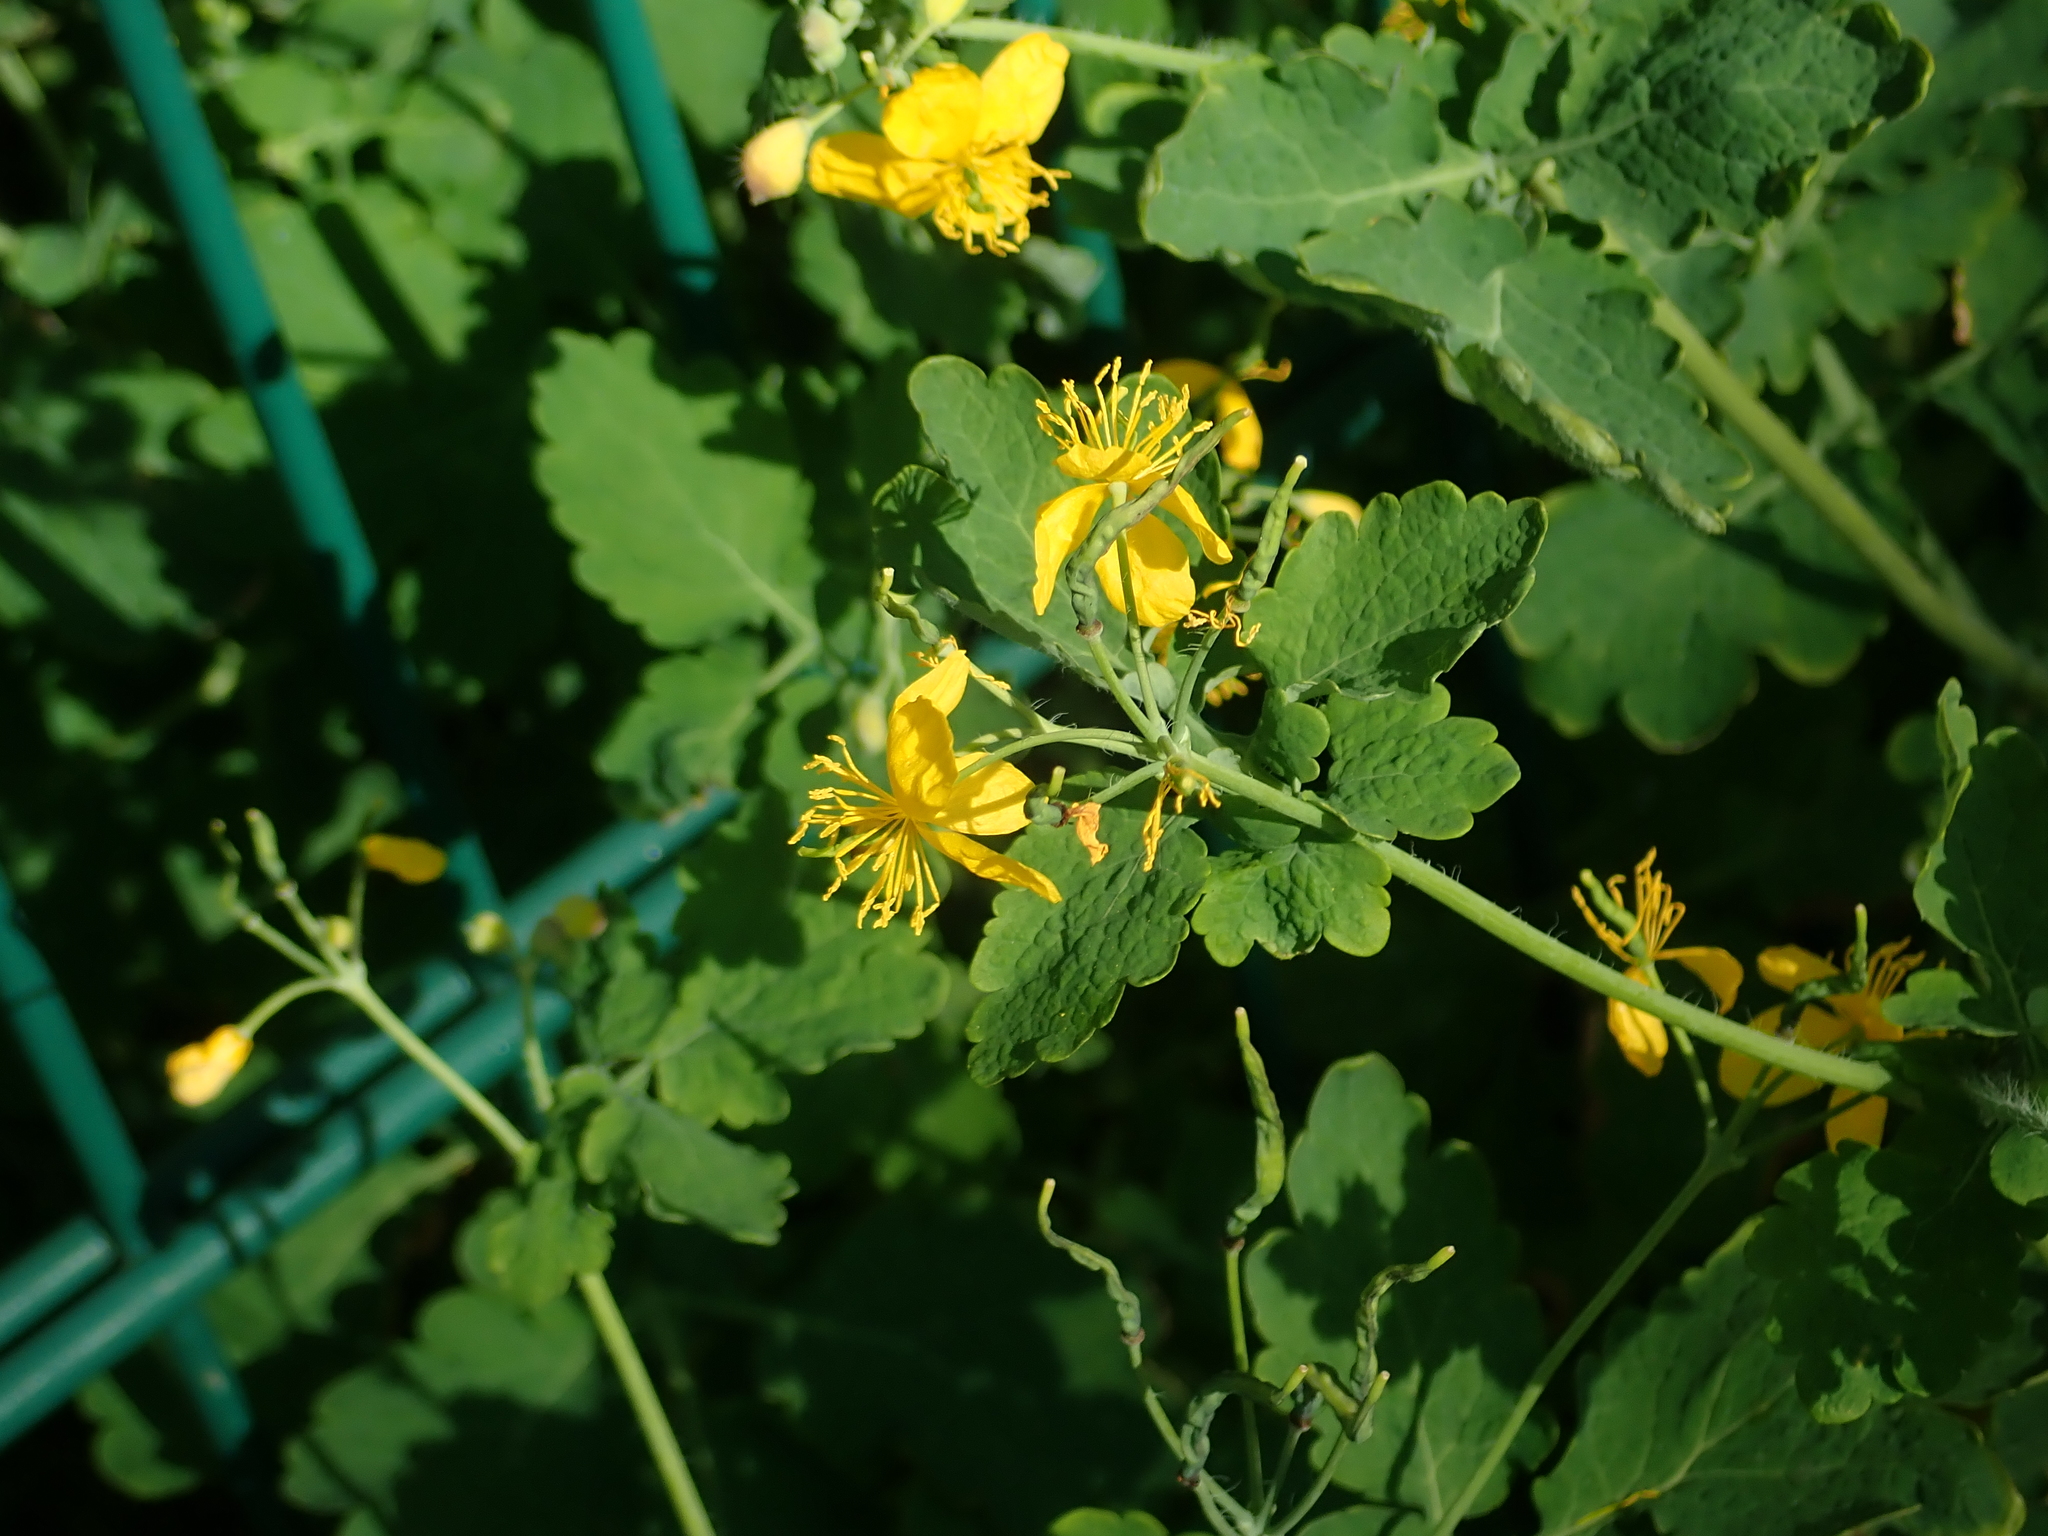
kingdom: Plantae
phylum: Tracheophyta
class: Magnoliopsida
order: Ranunculales
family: Papaveraceae
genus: Chelidonium
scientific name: Chelidonium majus
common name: Greater celandine
